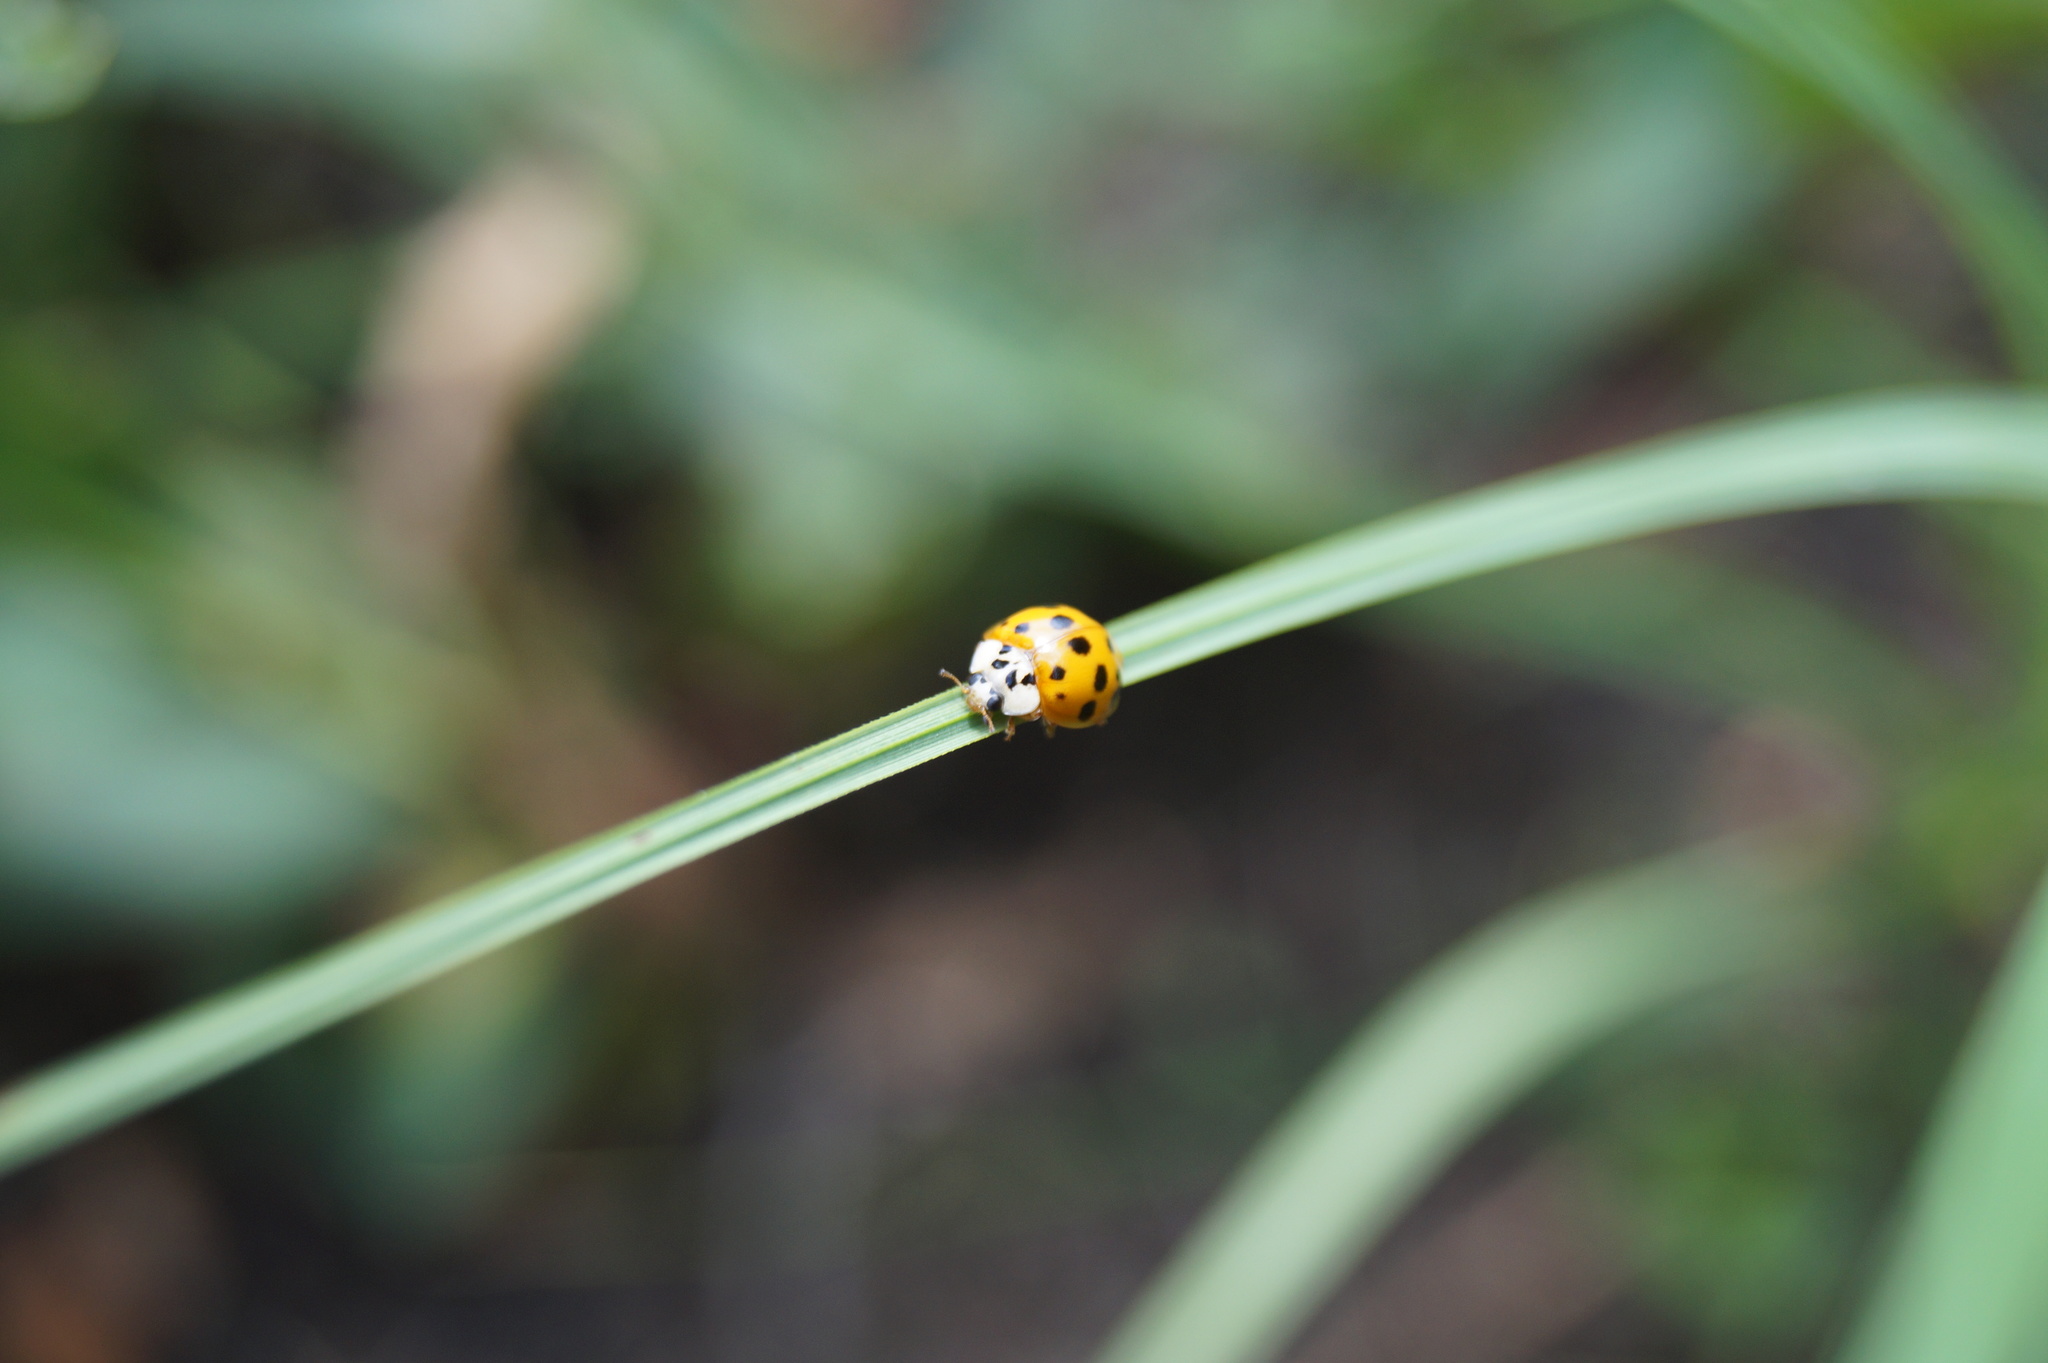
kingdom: Animalia
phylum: Arthropoda
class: Insecta
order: Coleoptera
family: Coccinellidae
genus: Harmonia
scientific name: Harmonia axyridis
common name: Harlequin ladybird
